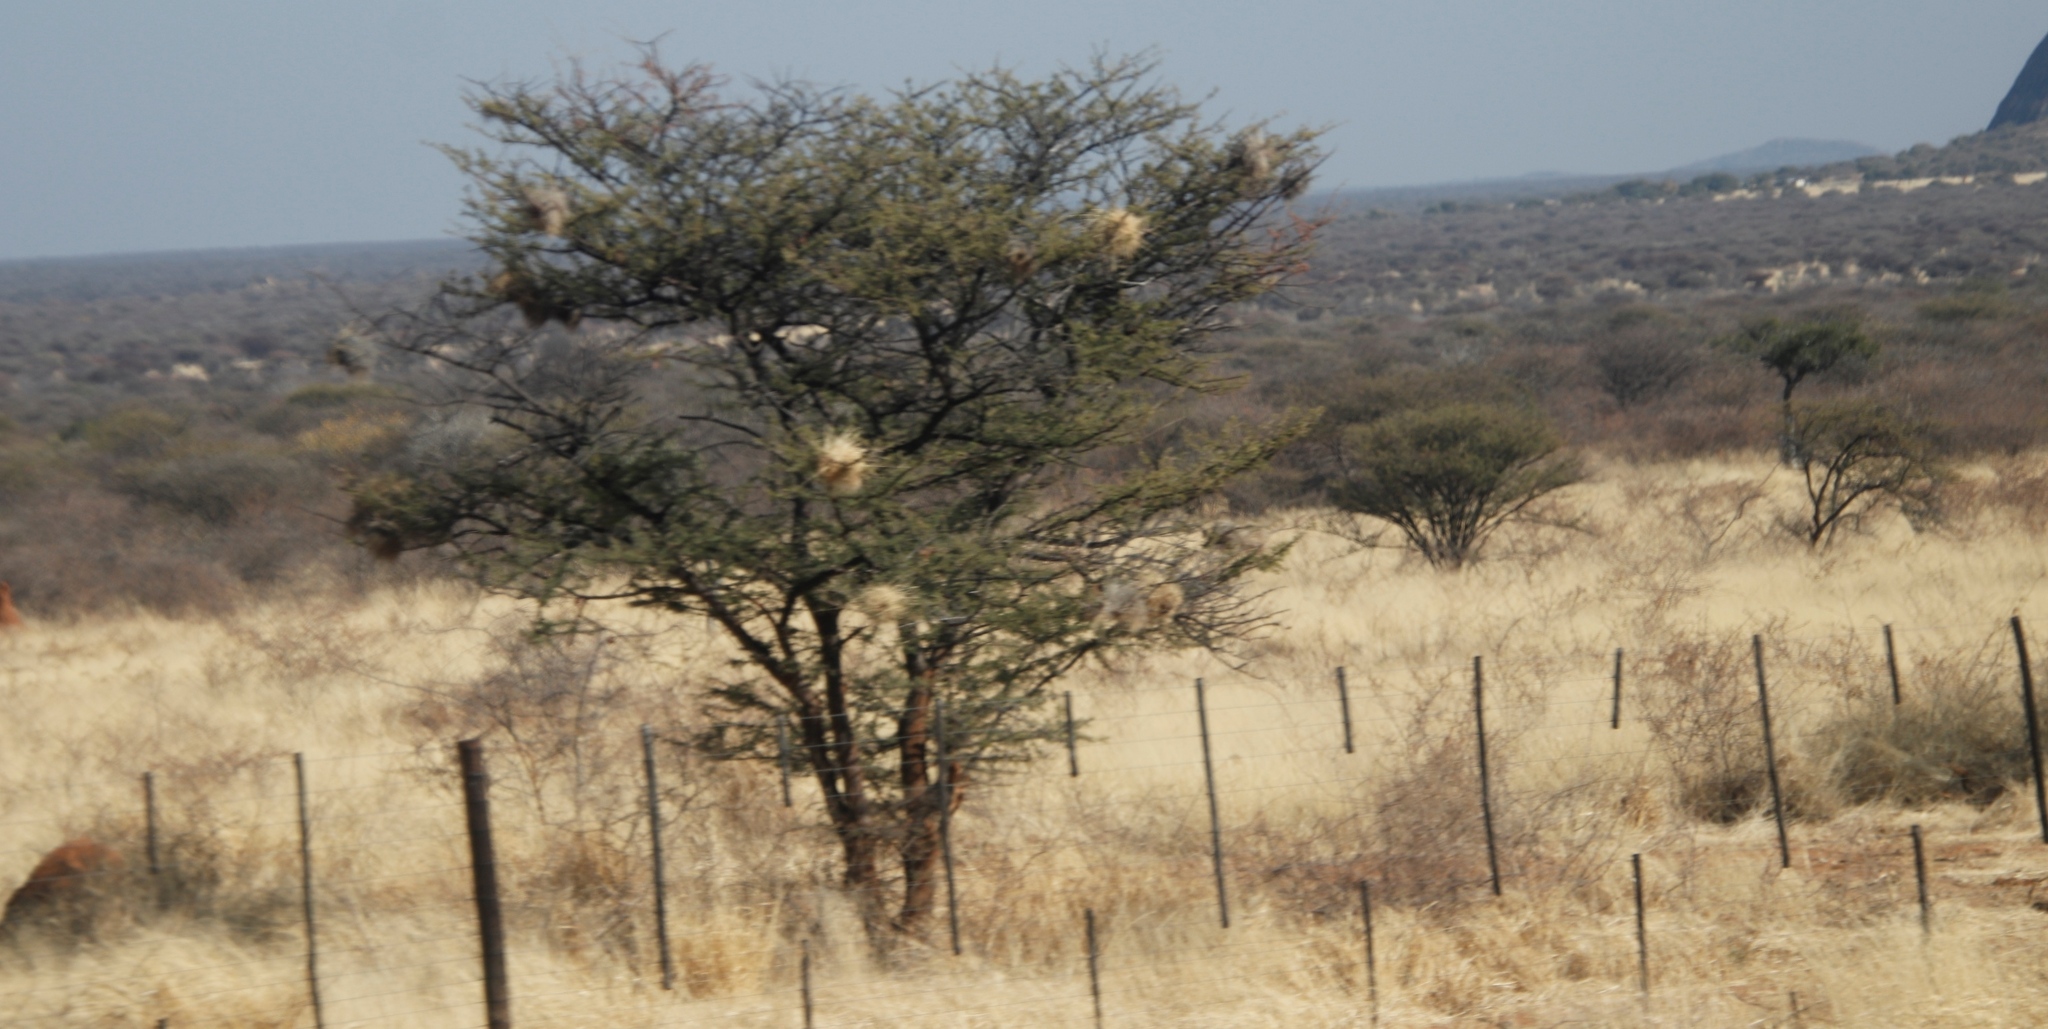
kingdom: Animalia
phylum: Chordata
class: Aves
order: Passeriformes
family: Passeridae
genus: Plocepasser
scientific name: Plocepasser mahali
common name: White-browed sparrow-weaver
